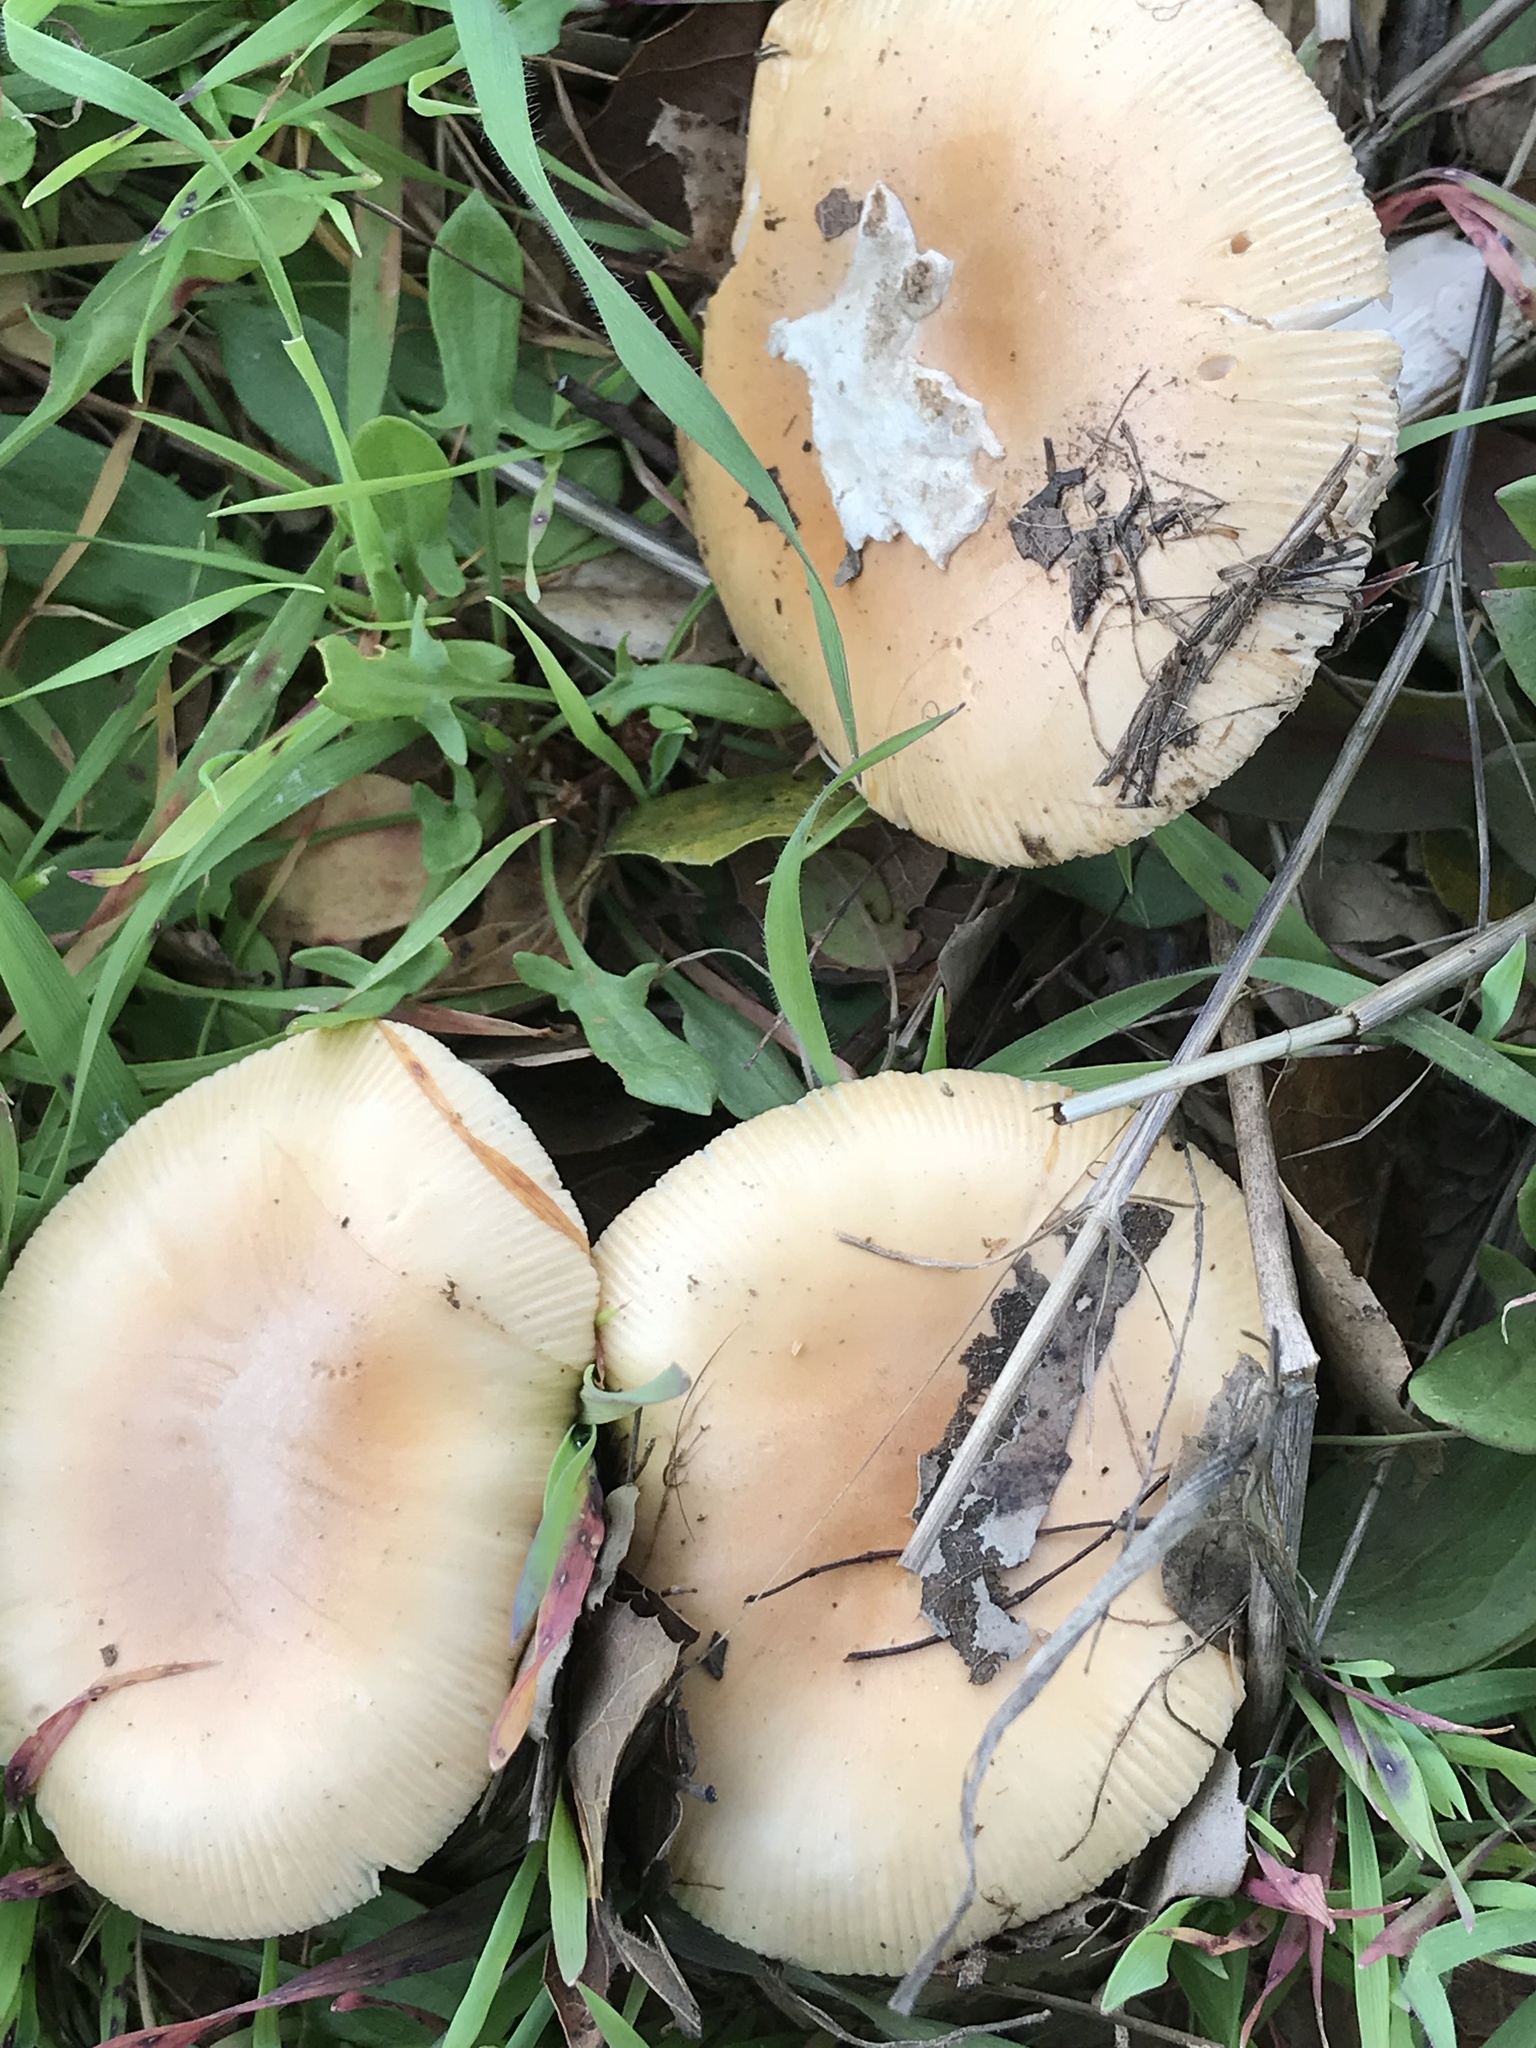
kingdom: Fungi
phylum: Basidiomycota
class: Agaricomycetes
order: Agaricales
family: Amanitaceae
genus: Amanita
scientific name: Amanita velosa
